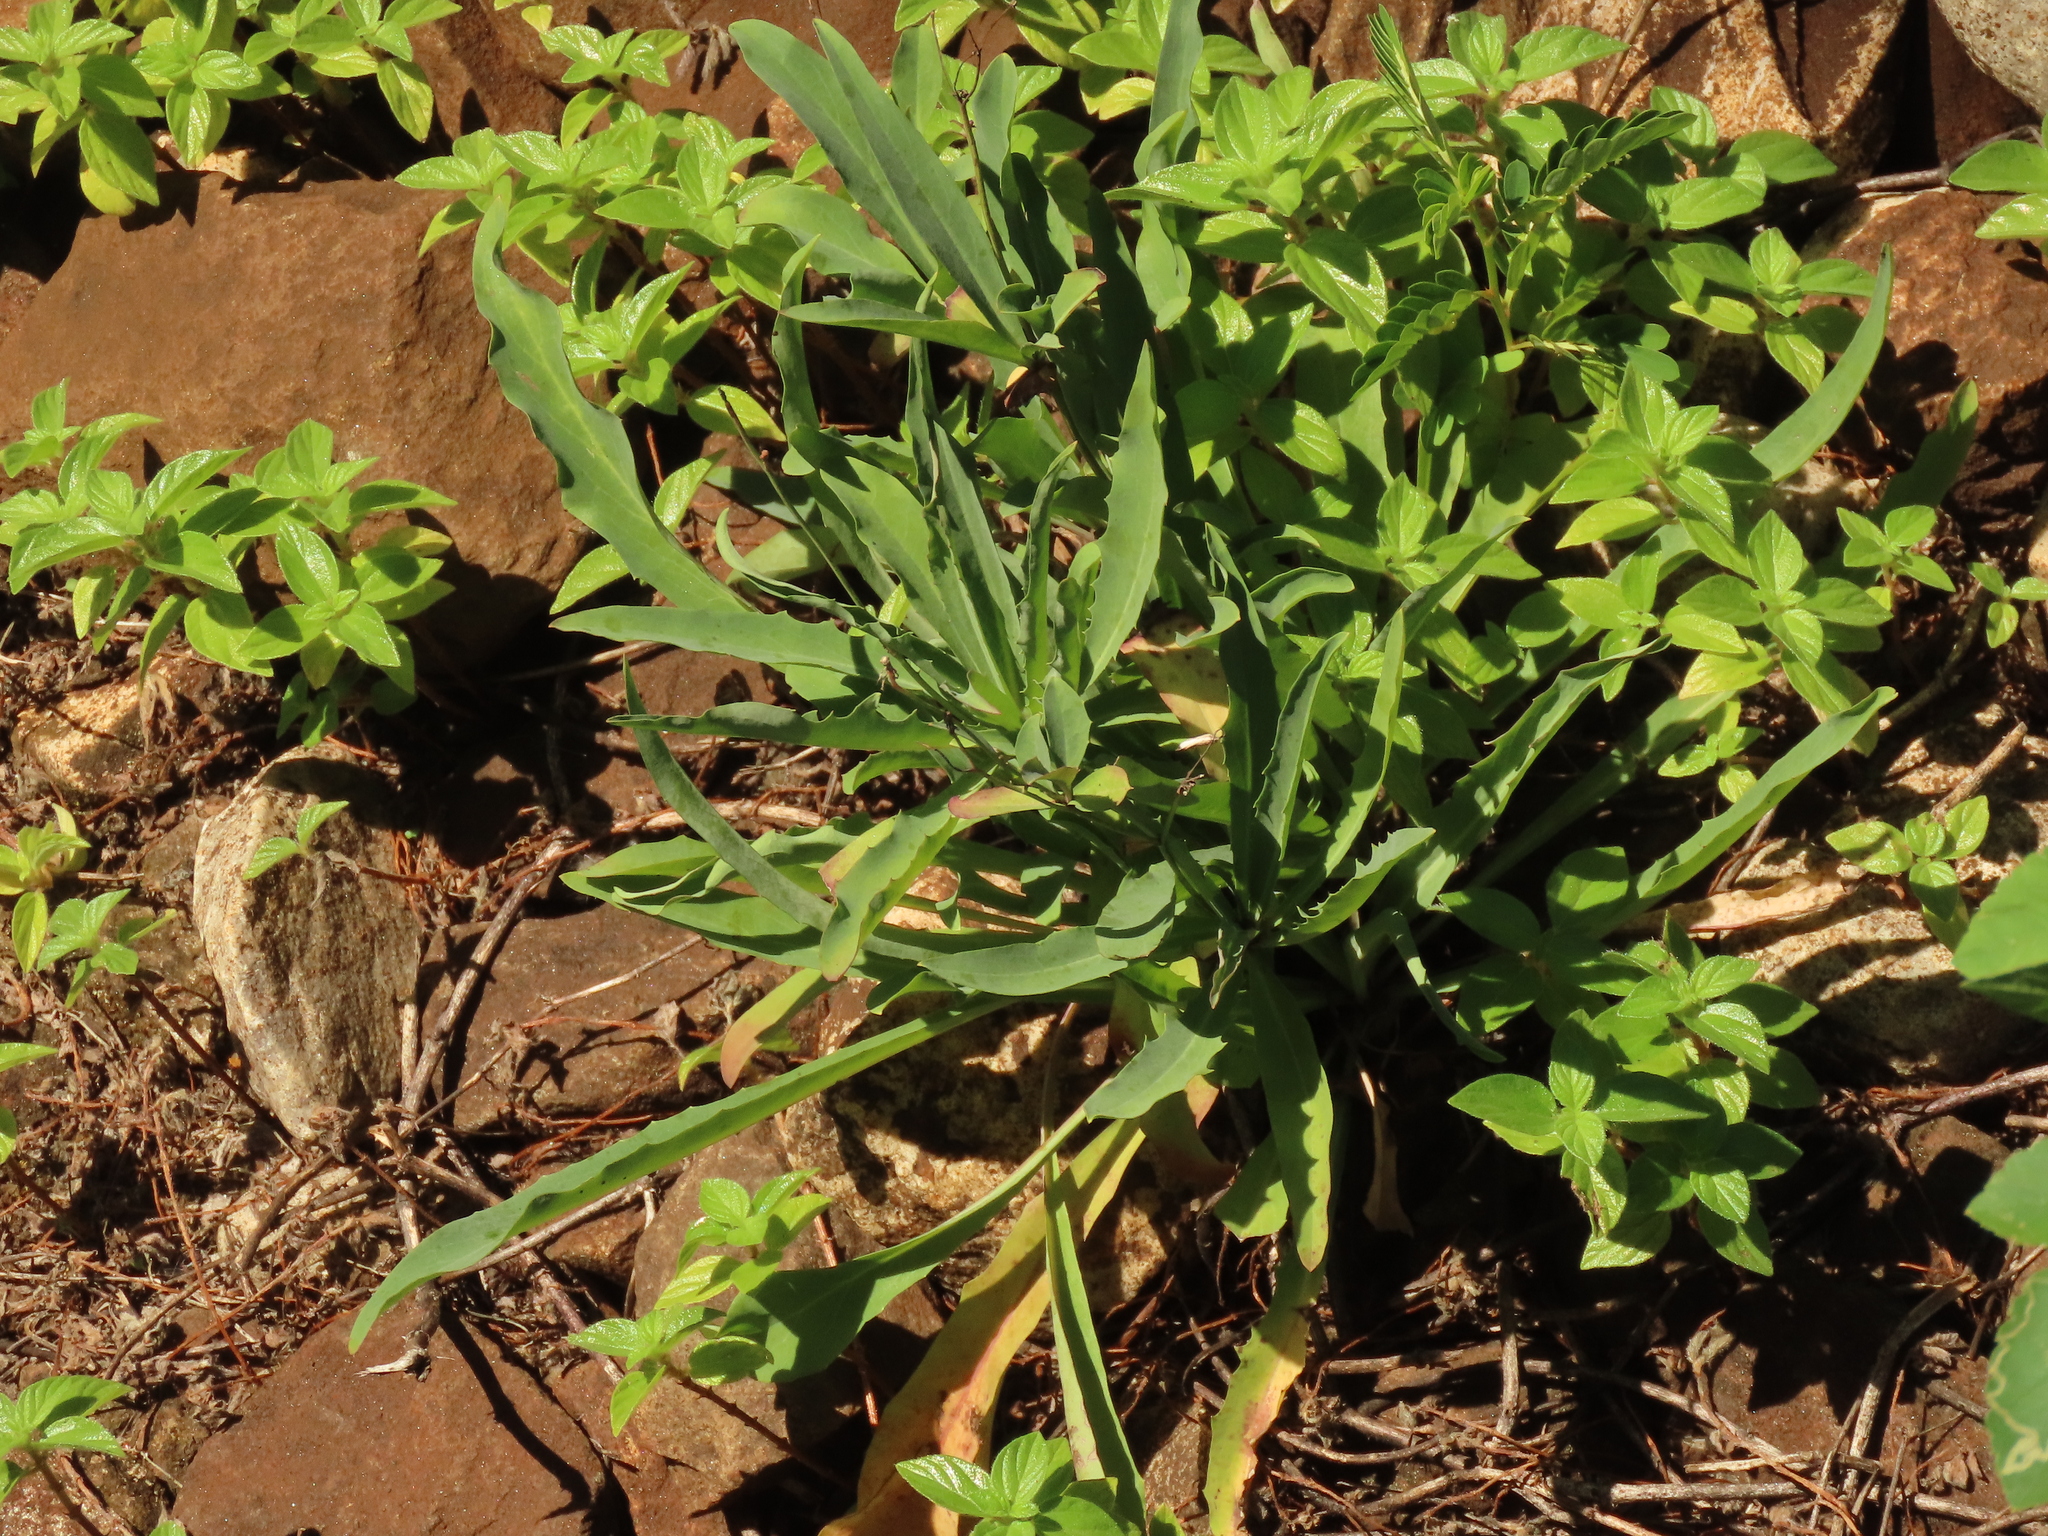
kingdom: Plantae
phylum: Tracheophyta
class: Magnoliopsida
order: Asterales
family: Asteraceae
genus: Ixeris
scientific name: Ixeris chinensis
